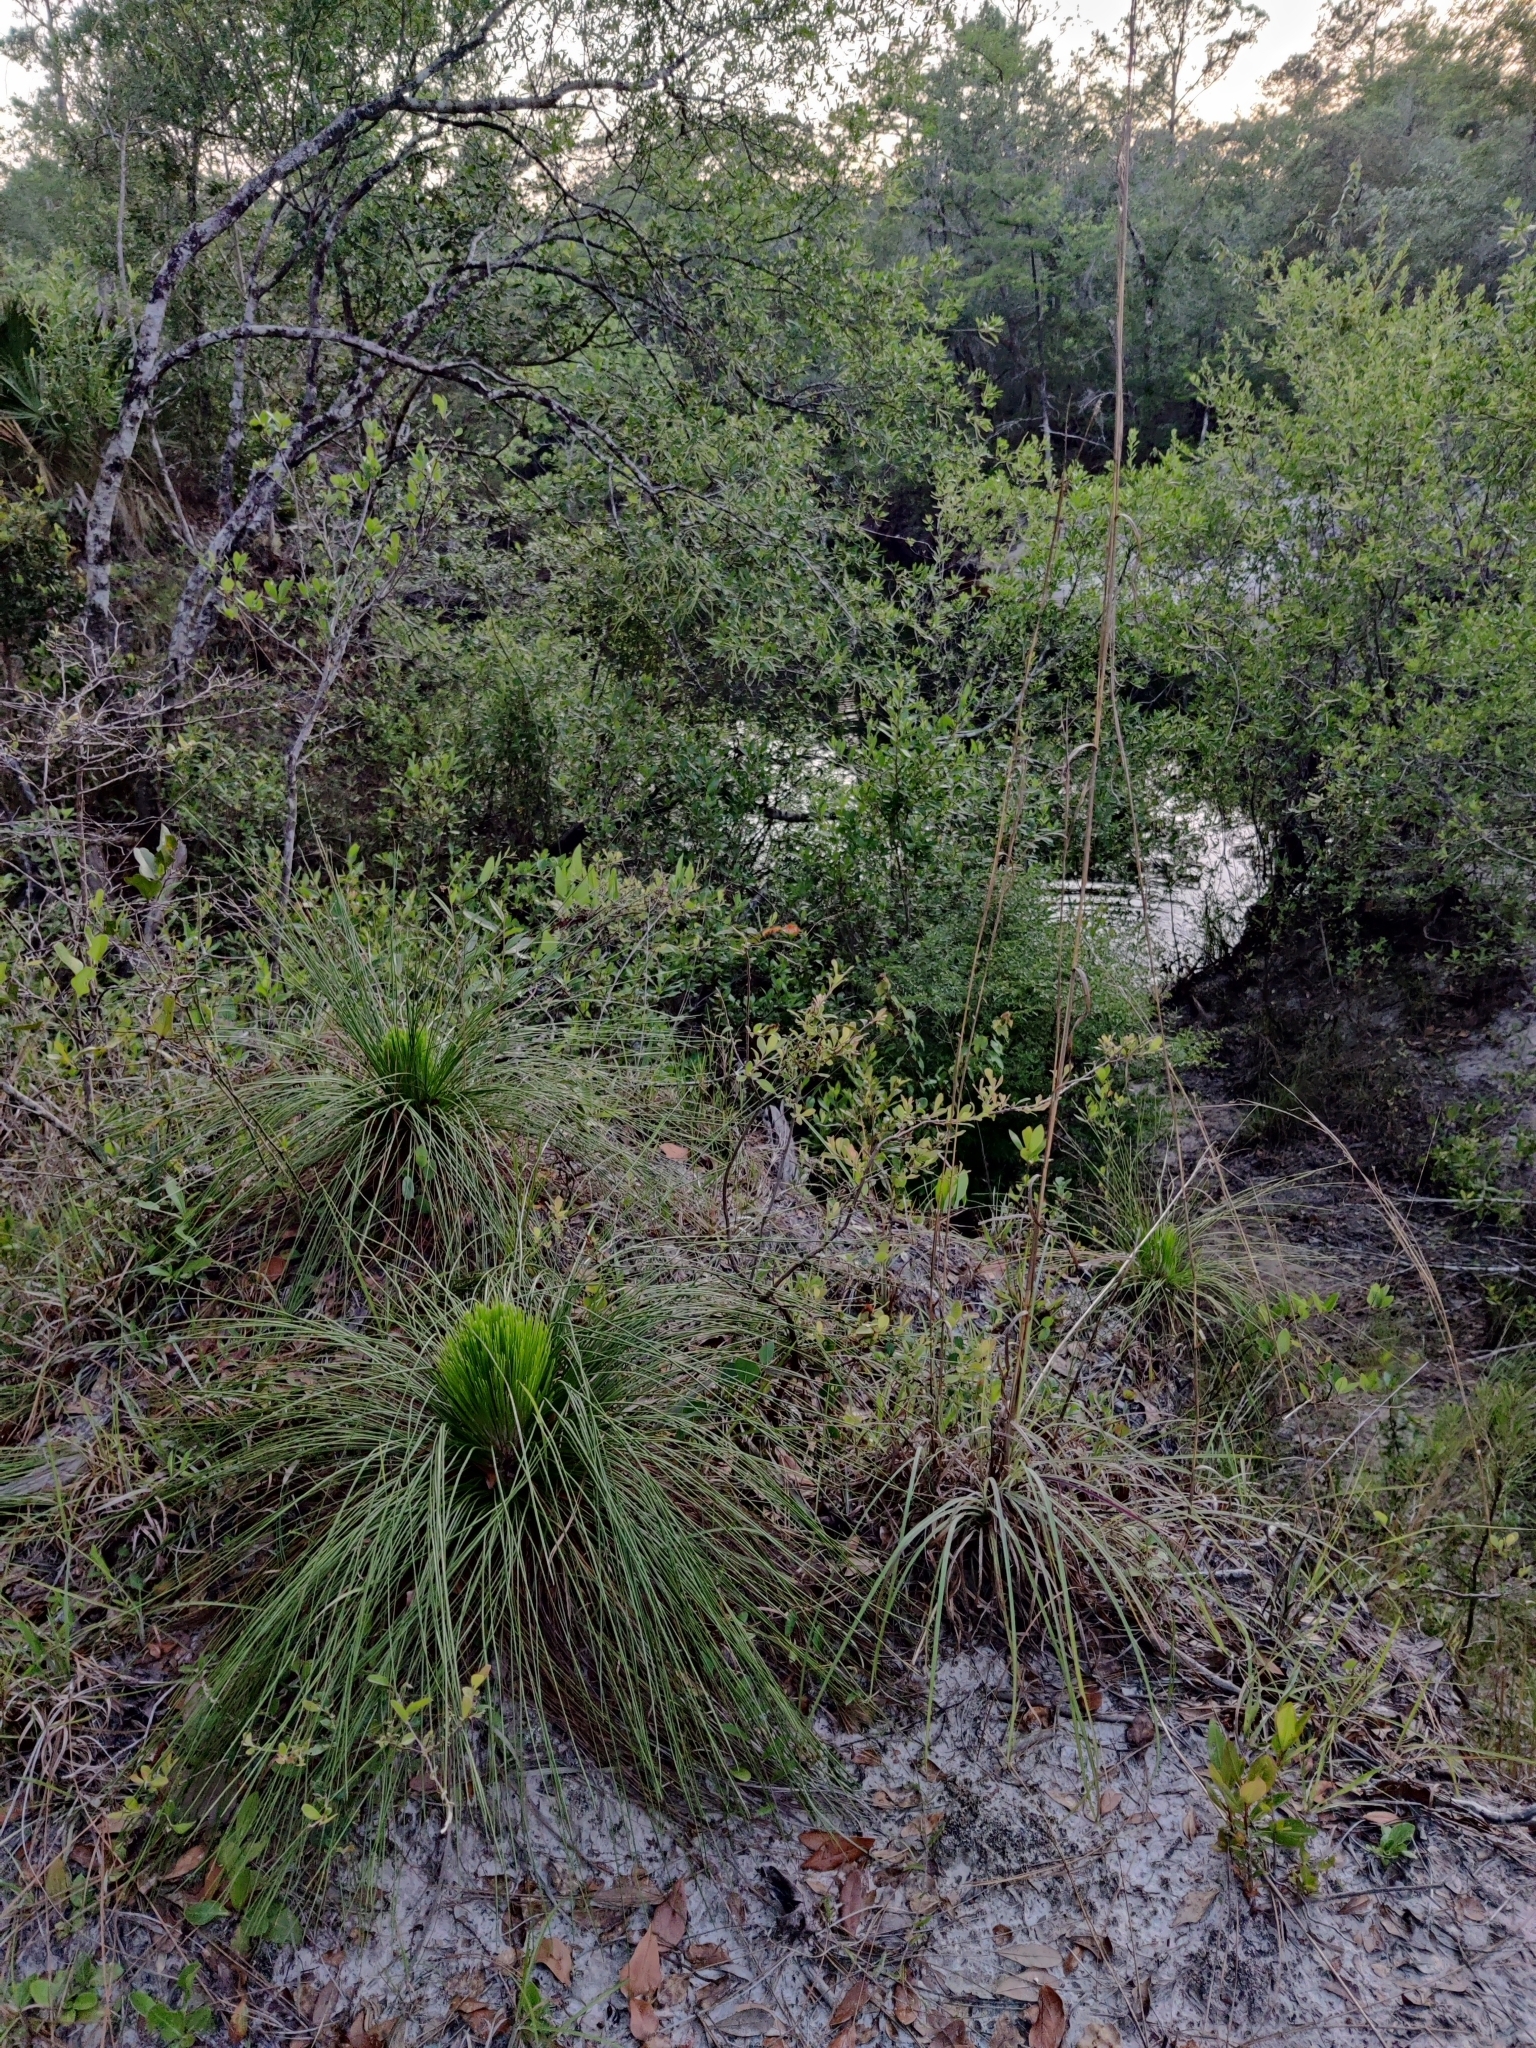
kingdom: Plantae
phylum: Tracheophyta
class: Pinopsida
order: Pinales
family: Pinaceae
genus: Pinus
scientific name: Pinus palustris
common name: Longleaf pine
